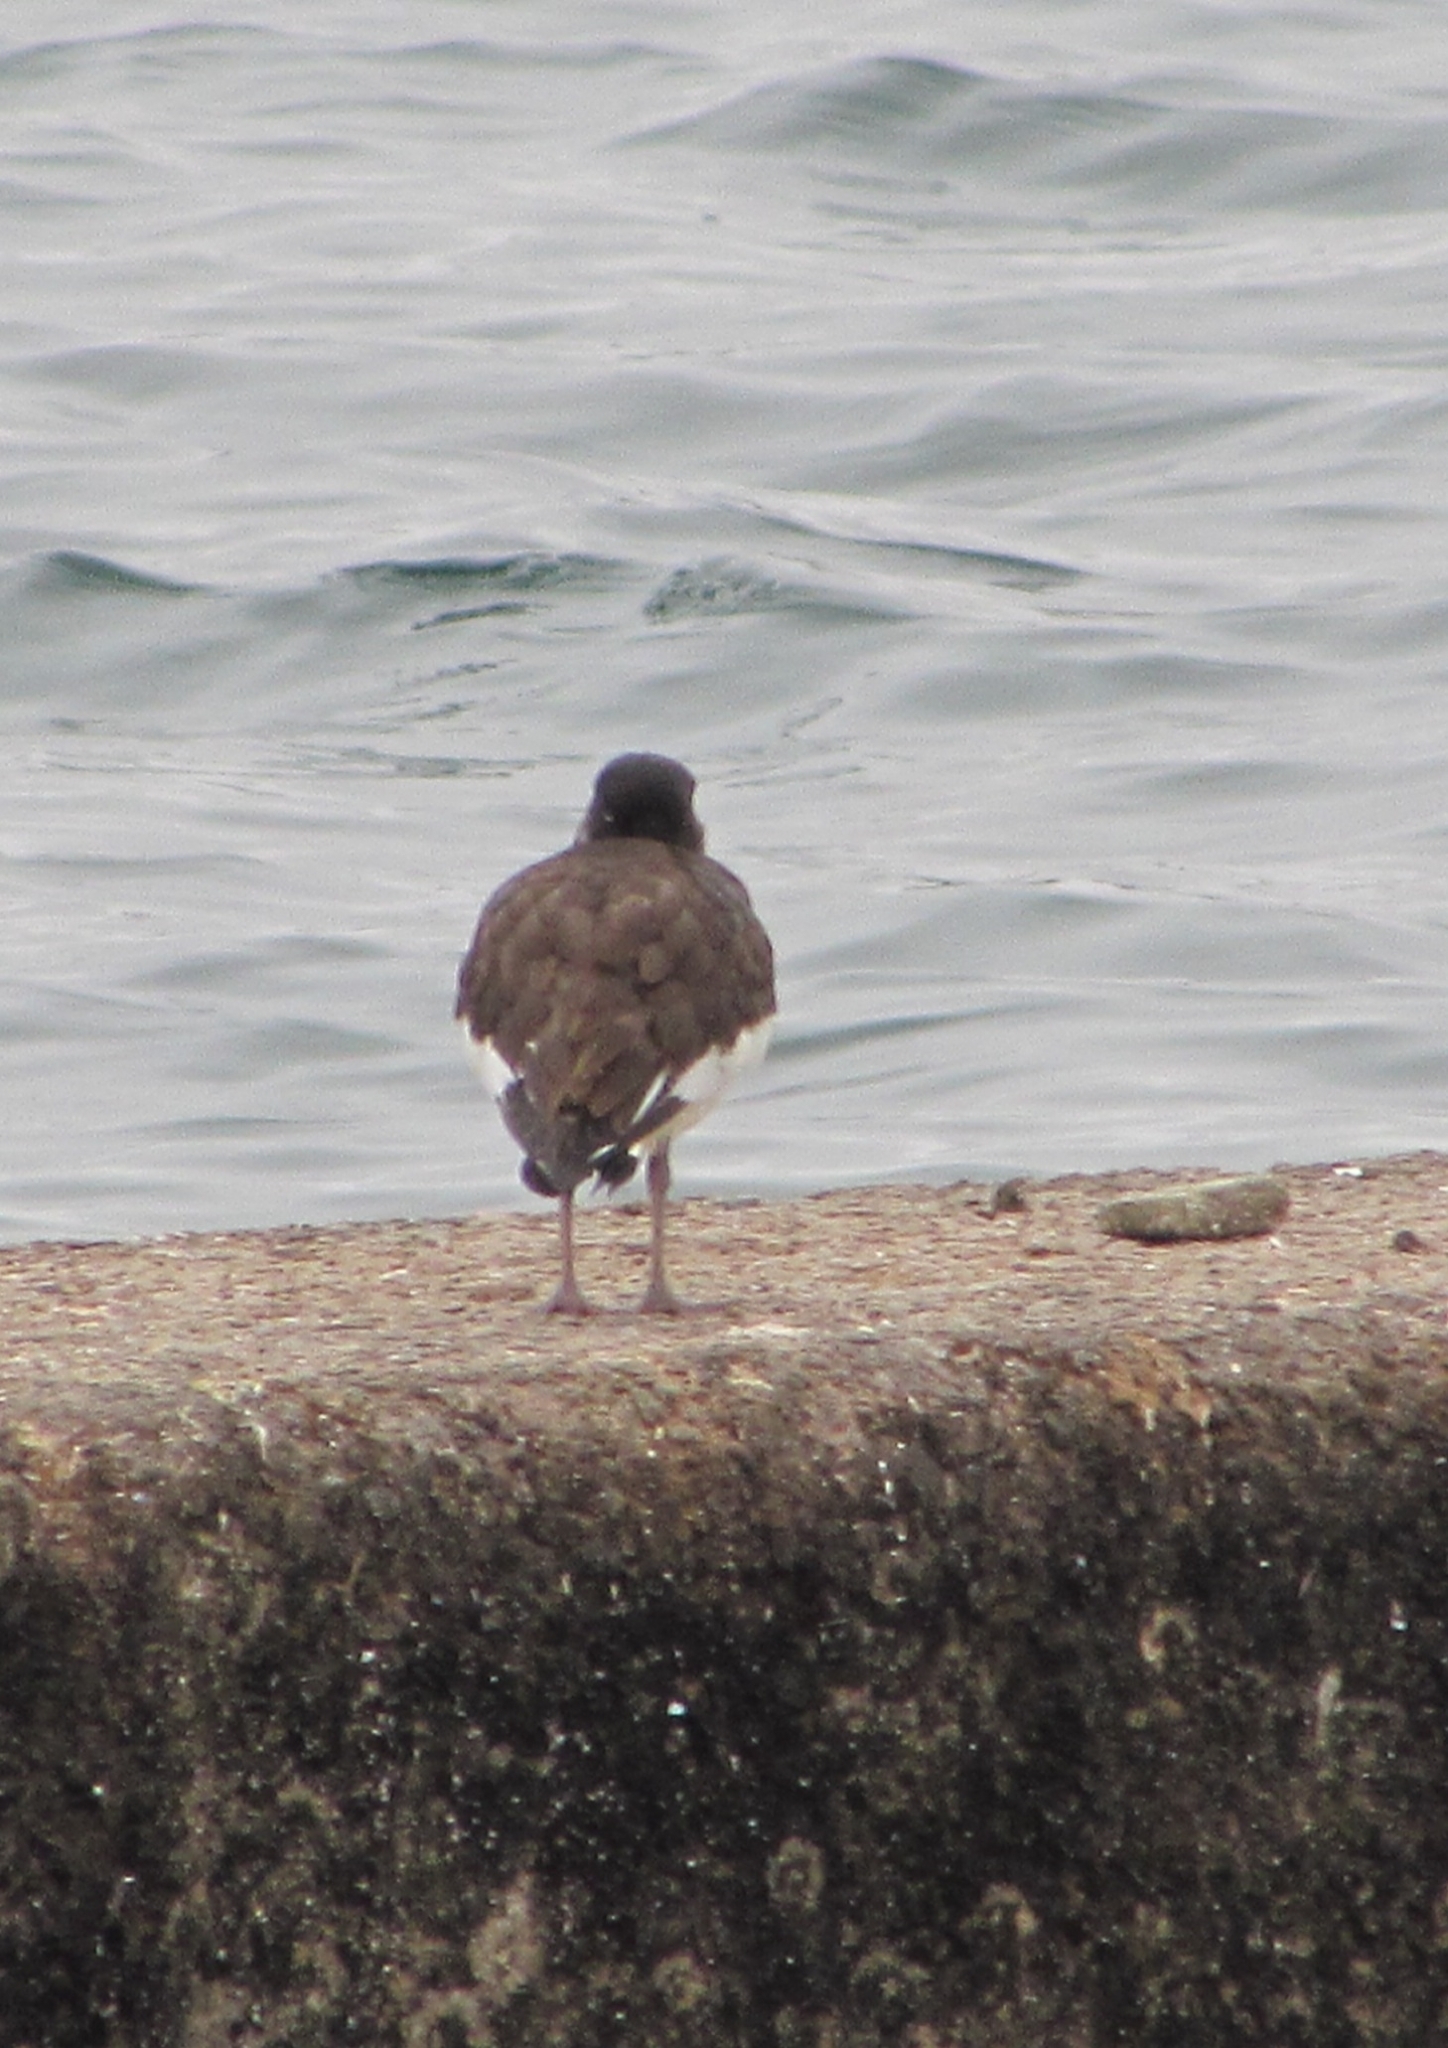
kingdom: Animalia
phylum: Chordata
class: Aves
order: Charadriiformes
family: Haematopodidae
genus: Haematopus
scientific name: Haematopus ostralegus
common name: Eurasian oystercatcher
